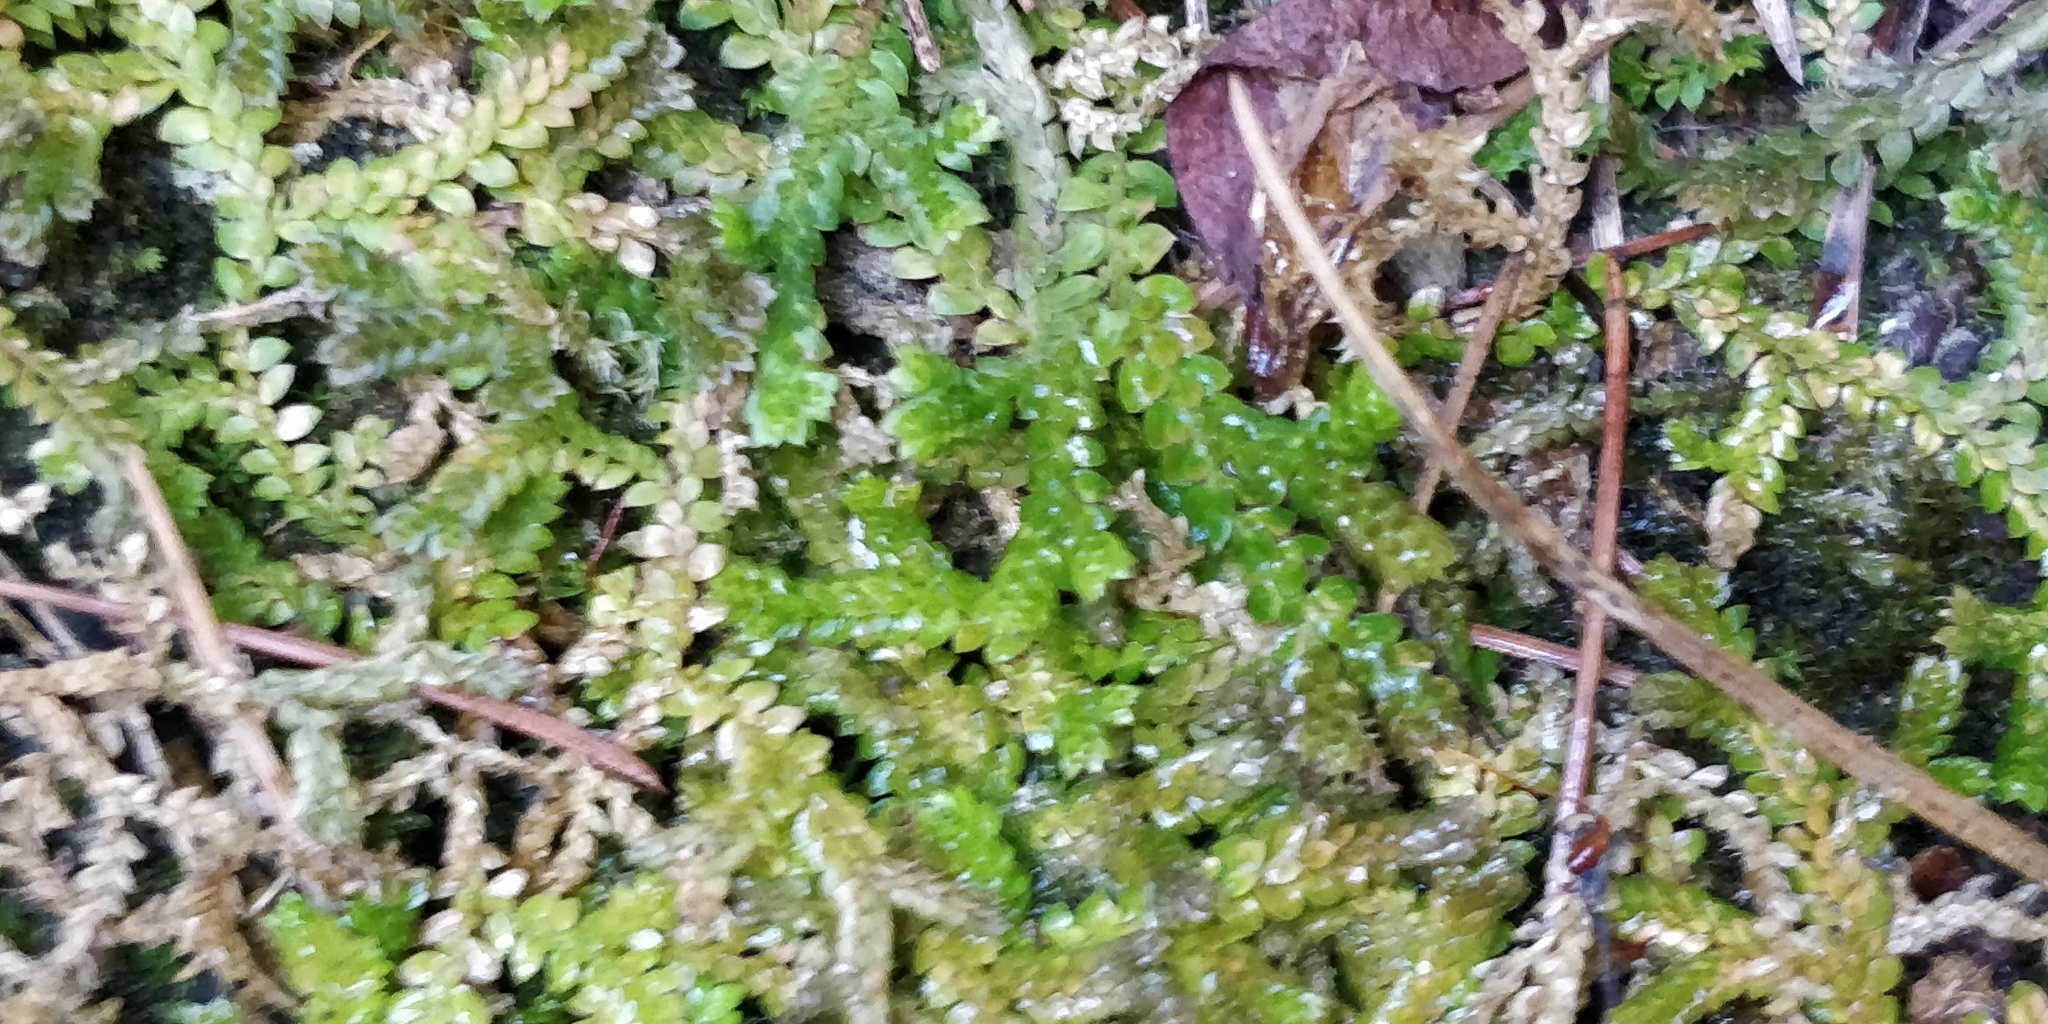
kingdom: Plantae
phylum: Tracheophyta
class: Lycopodiopsida
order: Selaginellales
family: Selaginellaceae
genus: Selaginella
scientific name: Selaginella denticulata
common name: Toothed-leaved clubmoss
